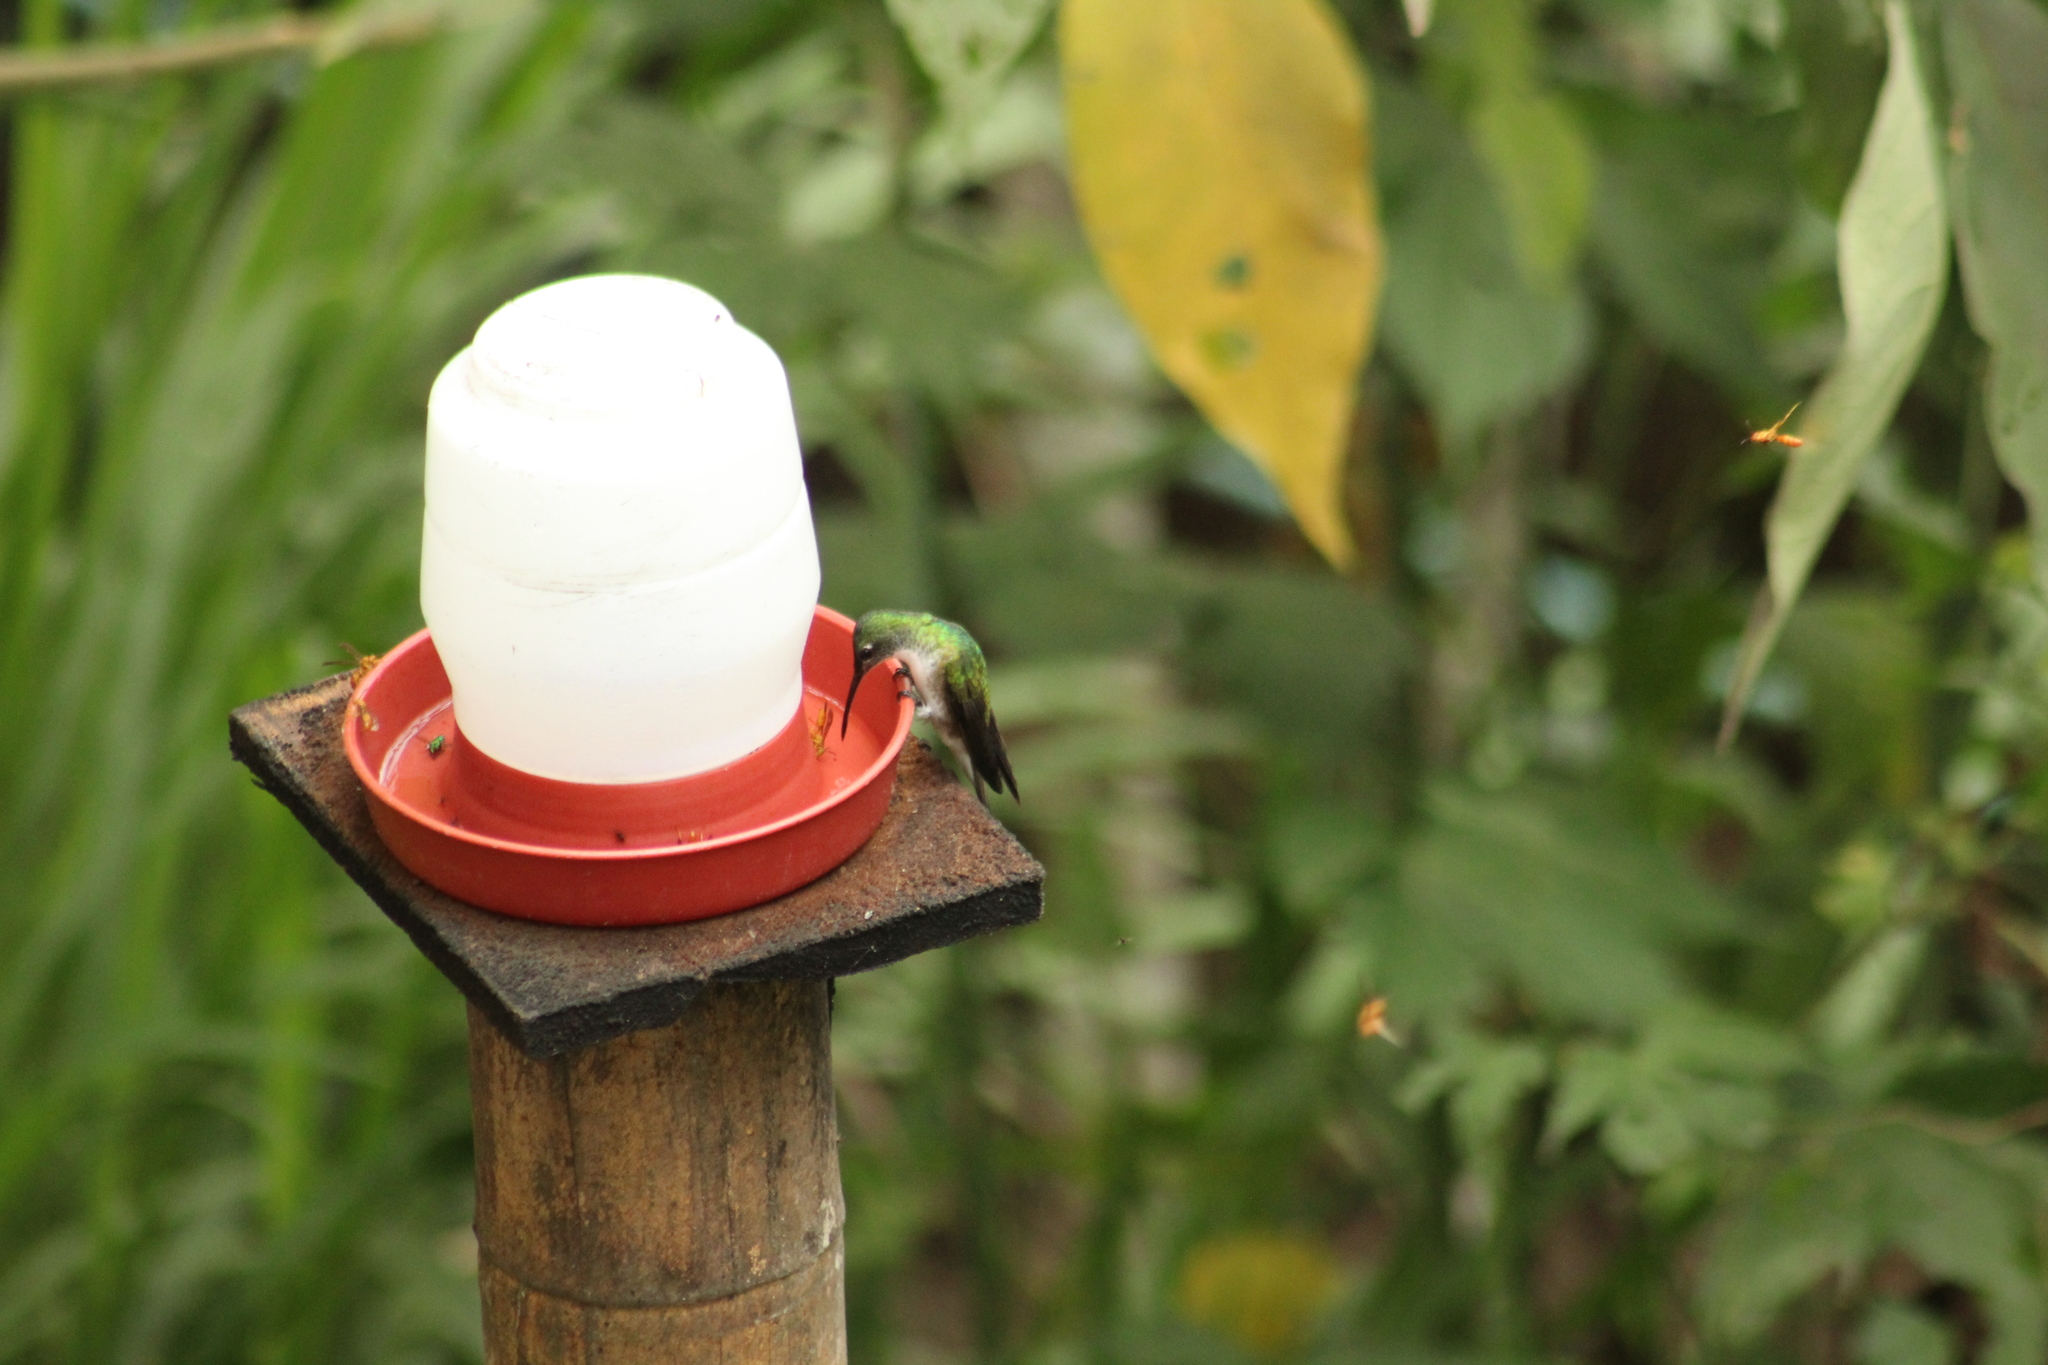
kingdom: Animalia
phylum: Chordata
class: Aves
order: Apodiformes
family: Trochilidae
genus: Uranomitra
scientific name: Uranomitra franciae
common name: Andean emerald
